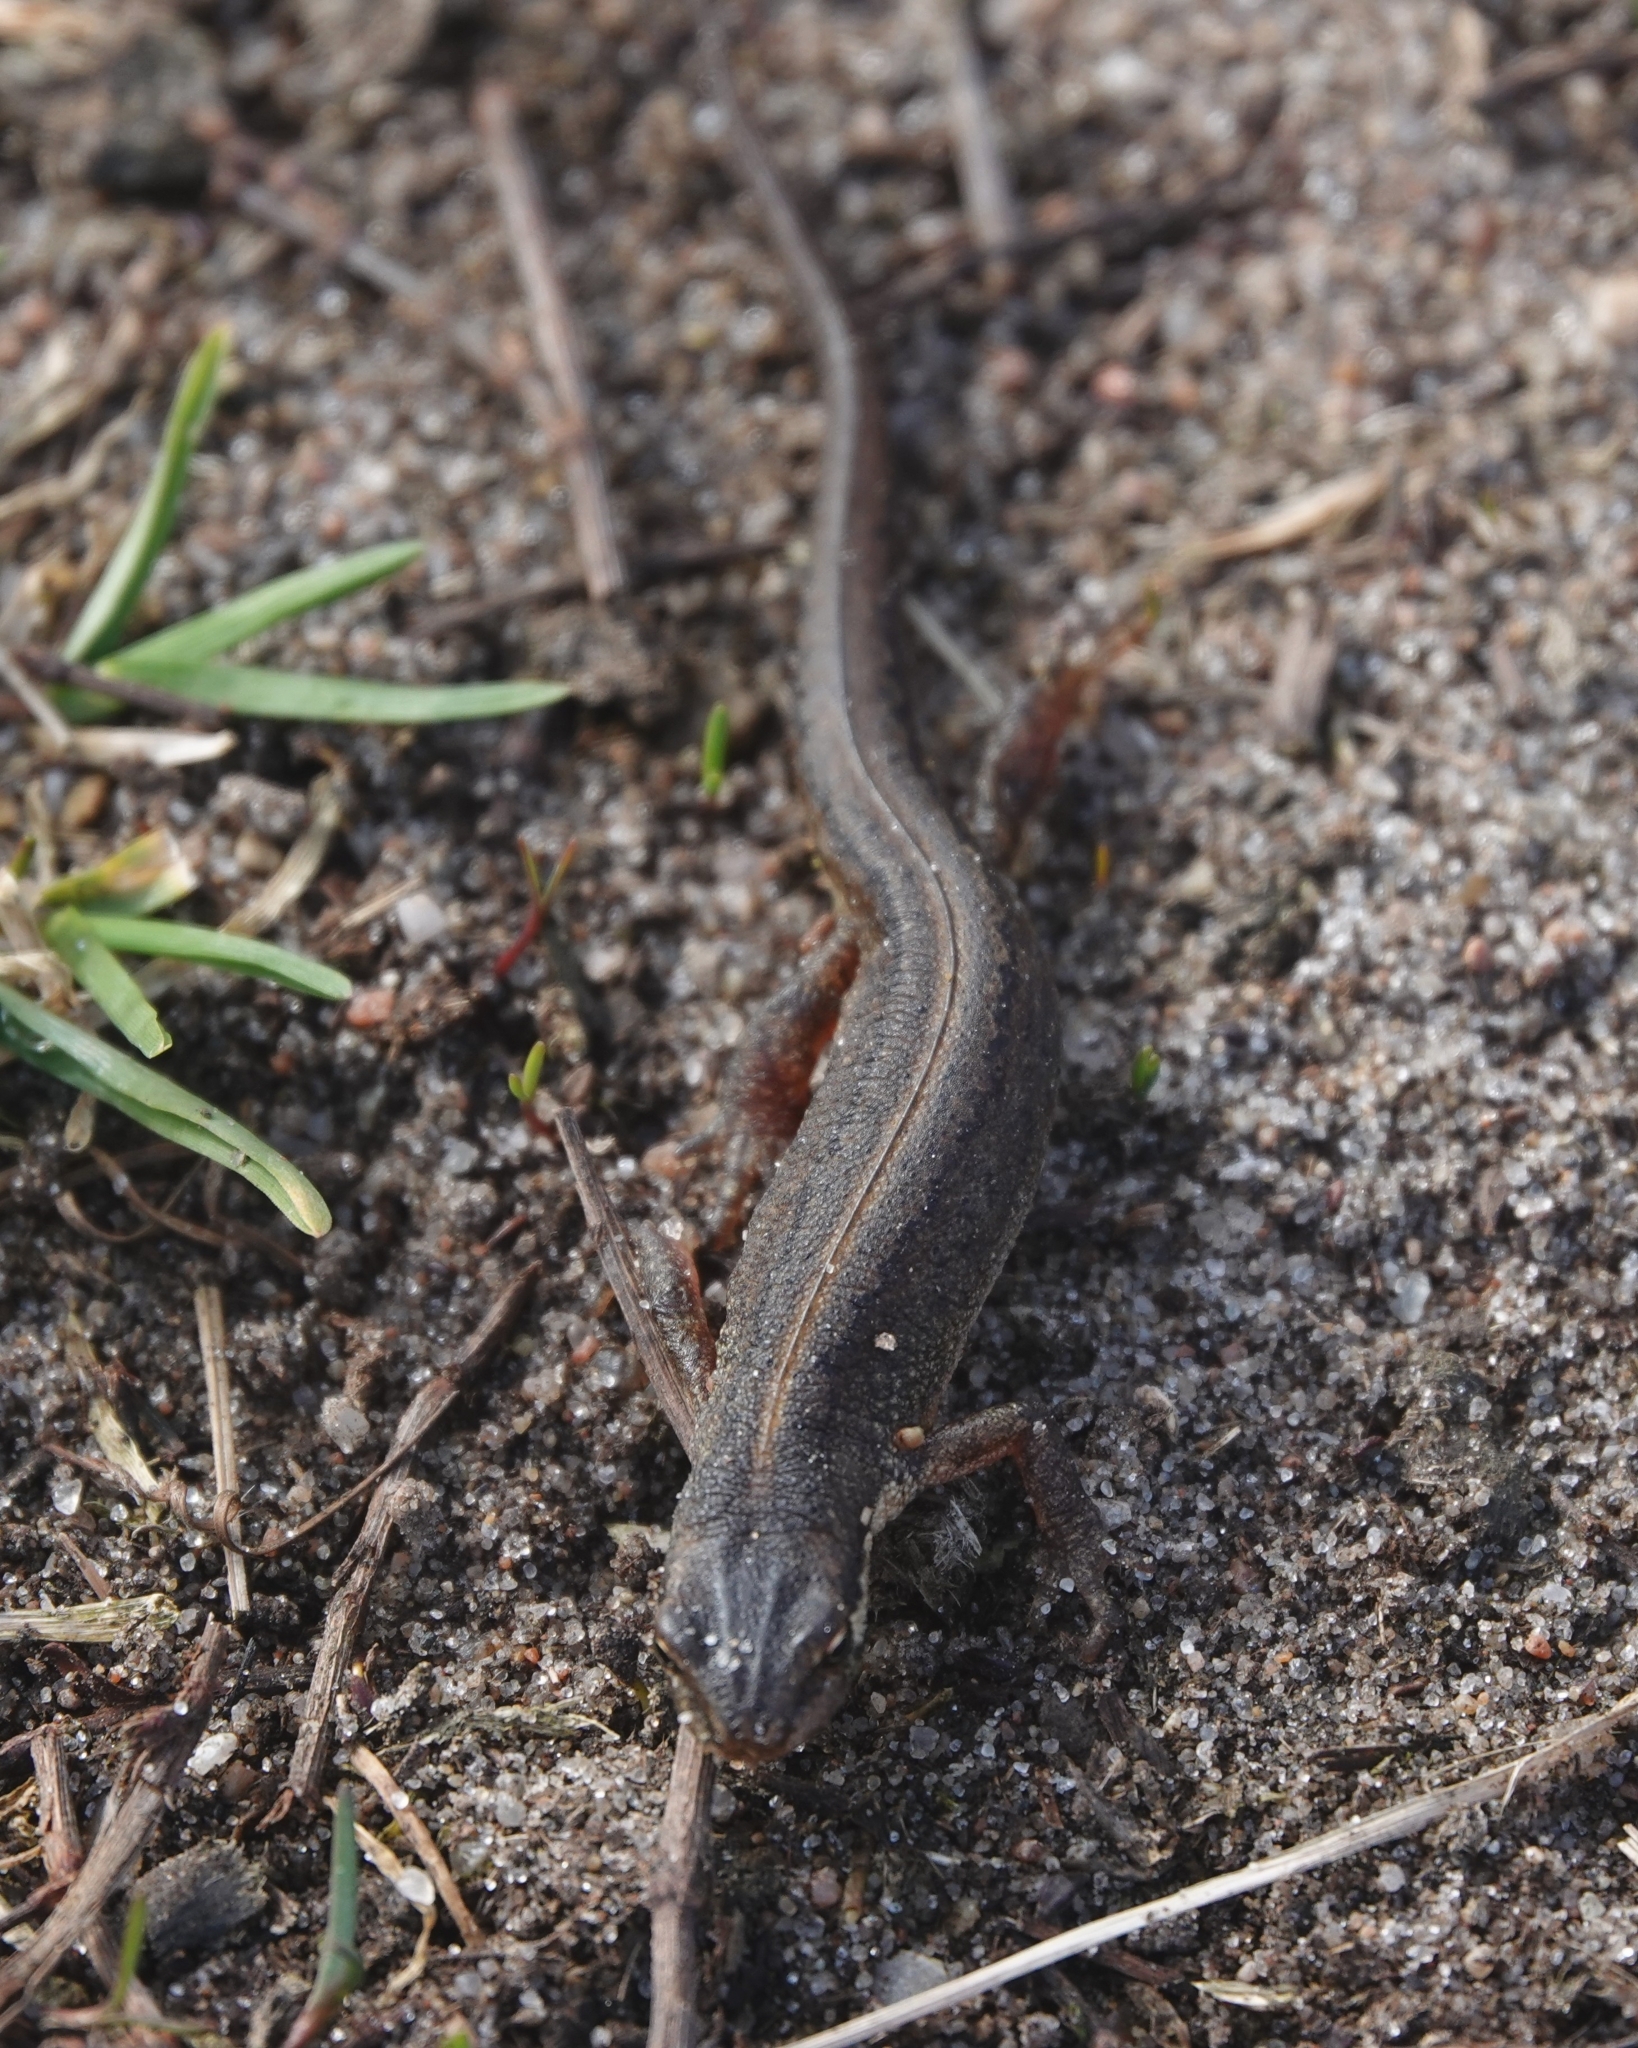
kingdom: Animalia
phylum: Chordata
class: Amphibia
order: Caudata
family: Salamandridae
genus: Lissotriton
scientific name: Lissotriton vulgaris
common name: Smooth newt
